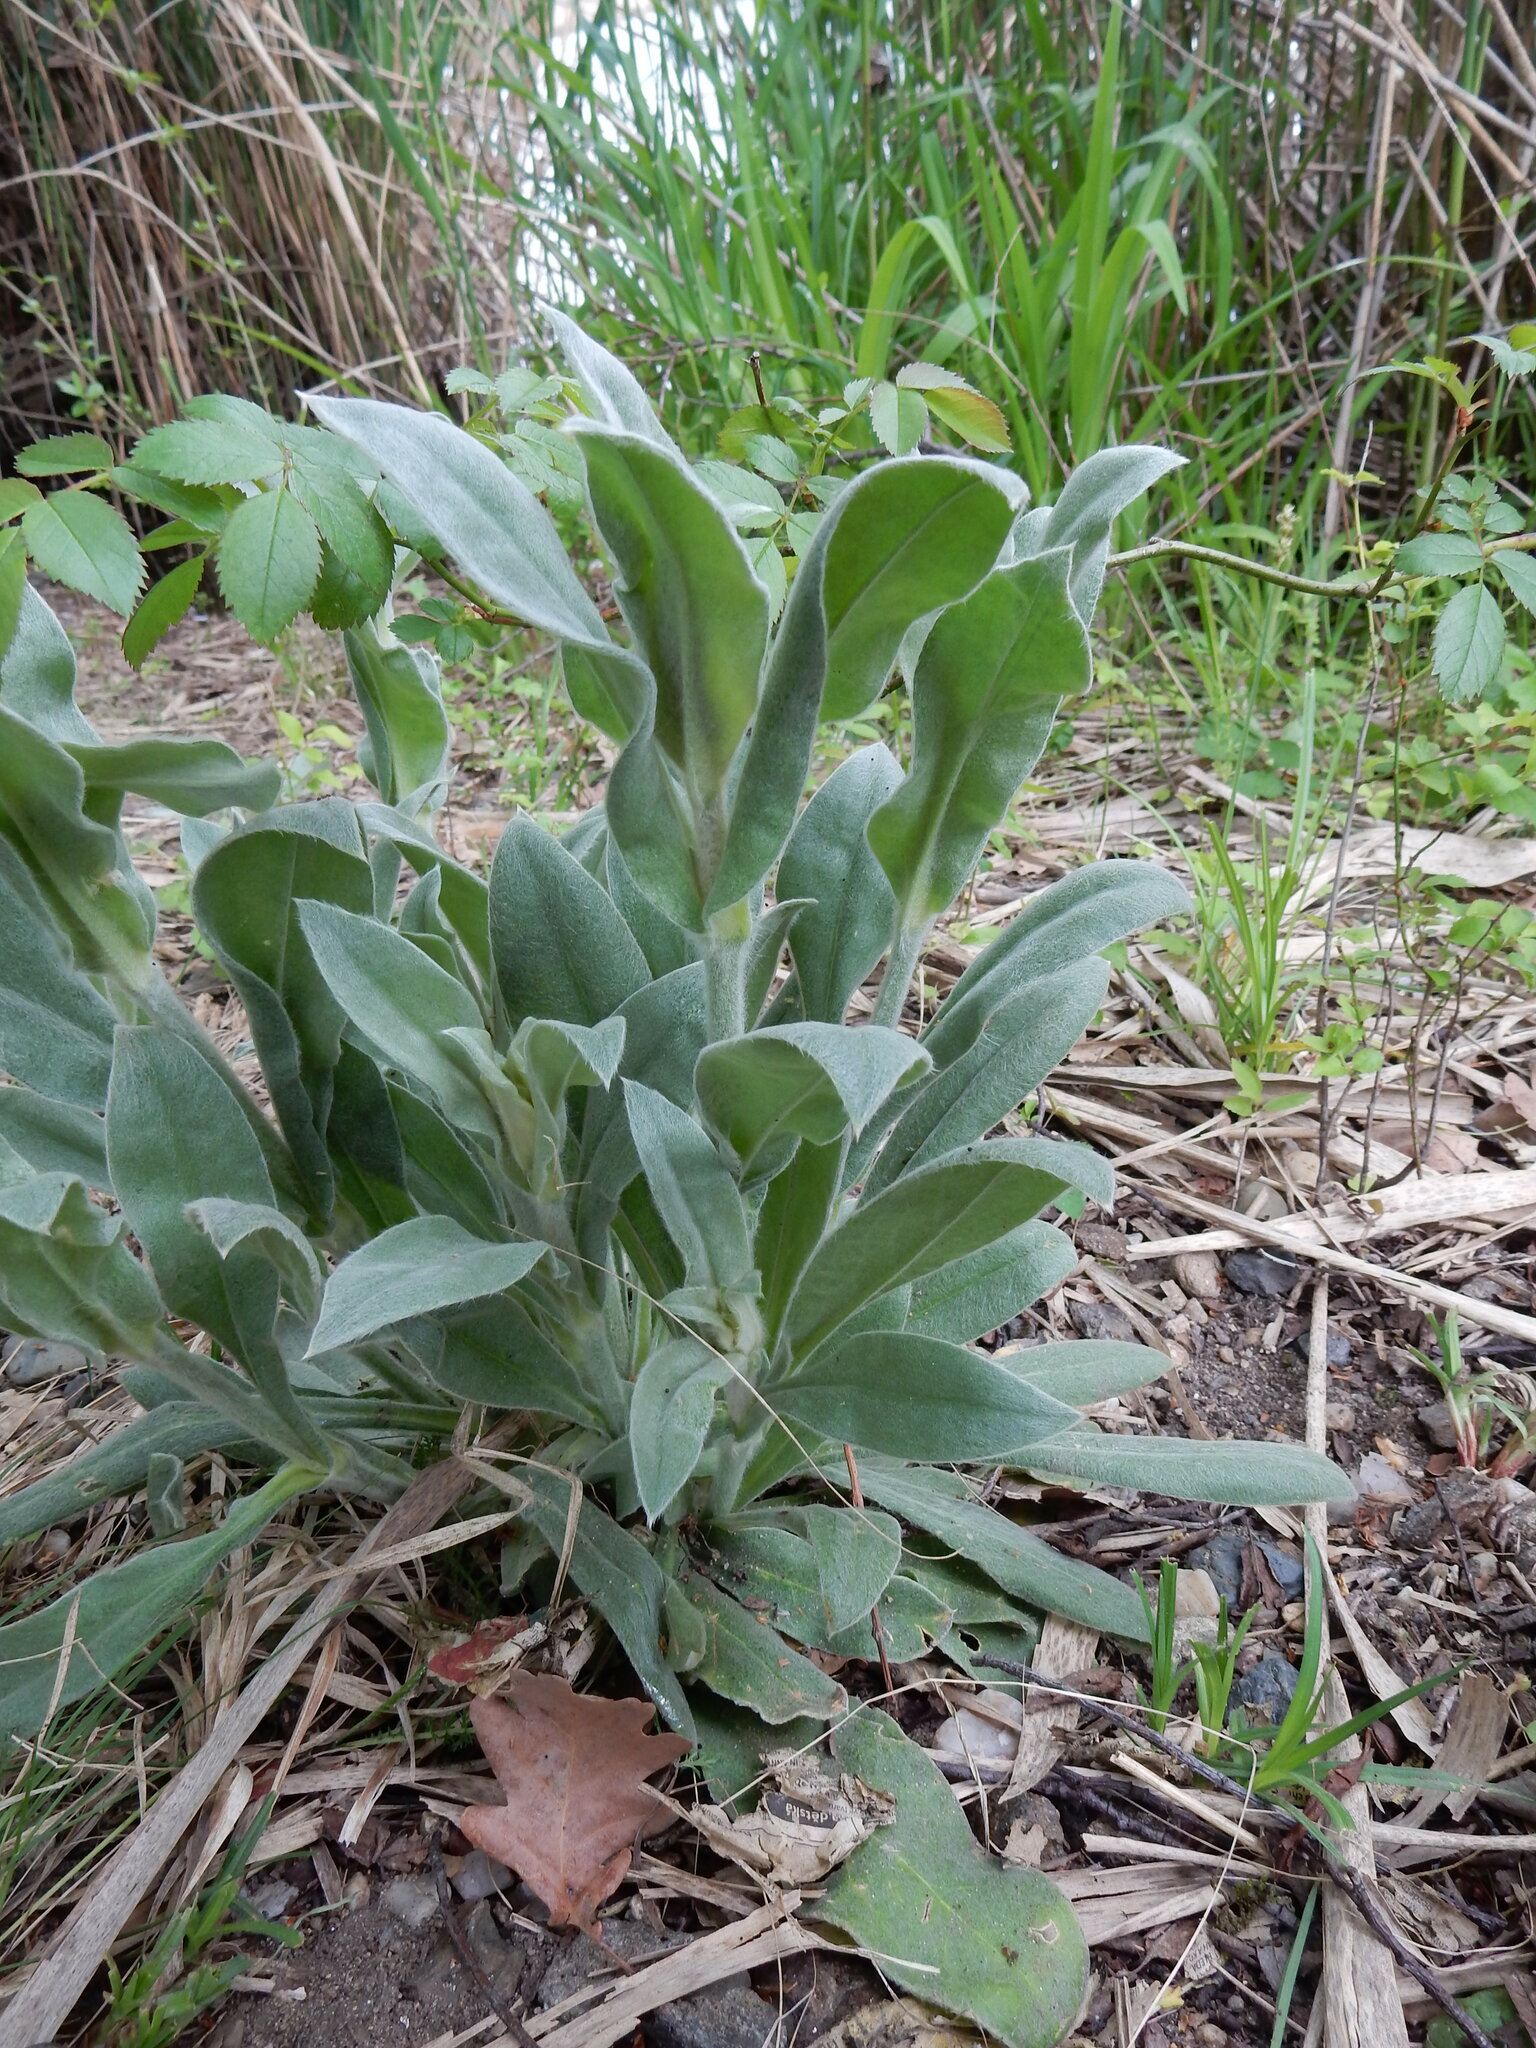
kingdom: Plantae
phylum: Tracheophyta
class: Magnoliopsida
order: Caryophyllales
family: Caryophyllaceae
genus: Silene
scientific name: Silene coronaria
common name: Rose campion
